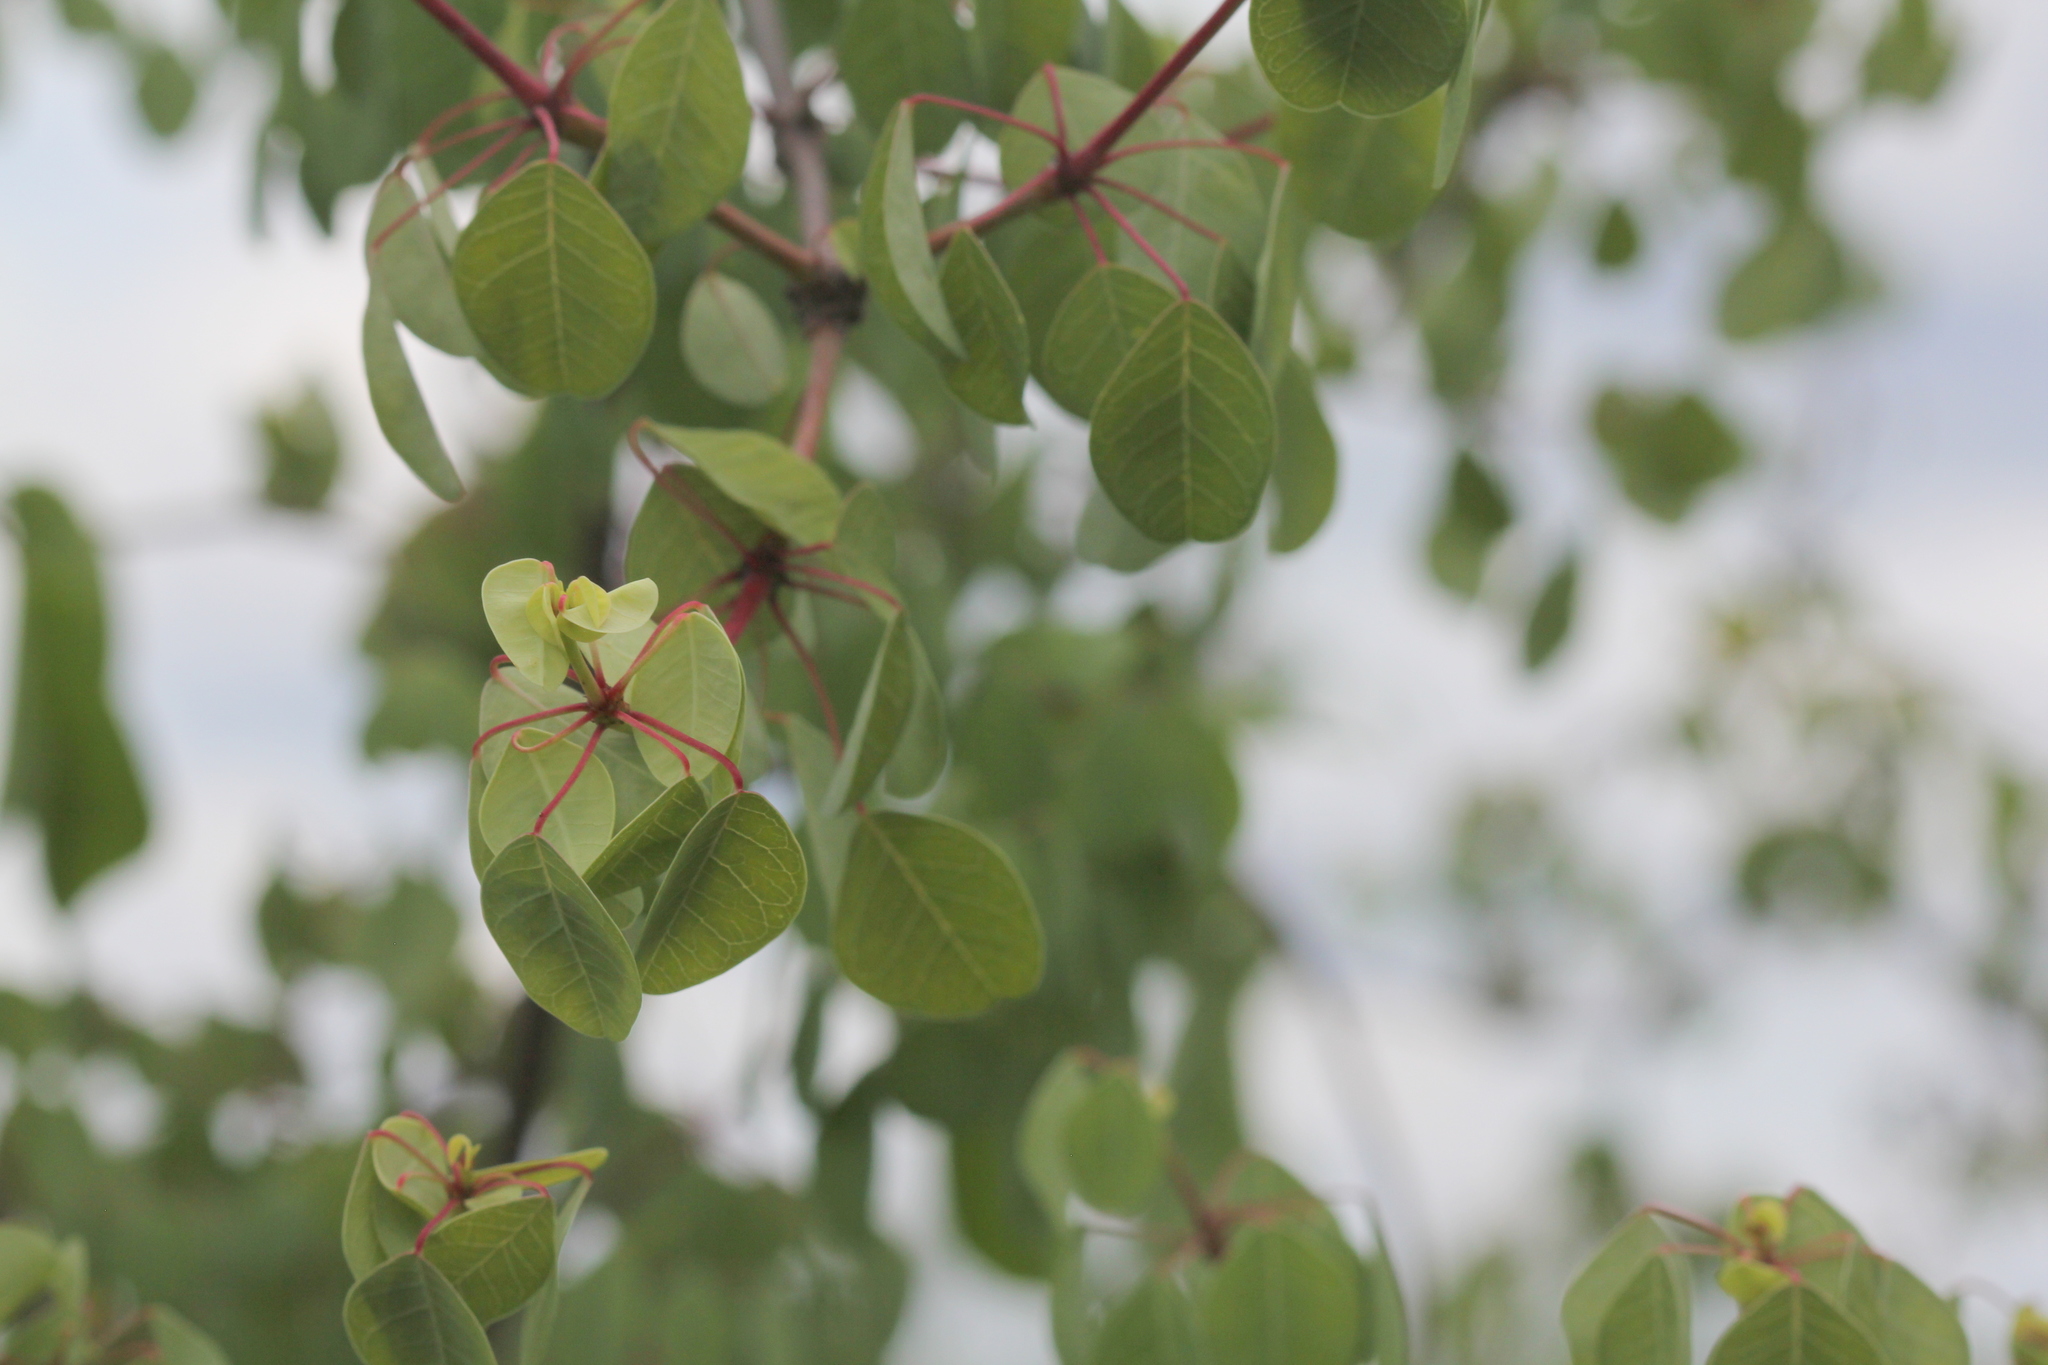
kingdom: Plantae
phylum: Tracheophyta
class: Magnoliopsida
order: Malpighiales
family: Euphorbiaceae
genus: Euphorbia
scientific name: Euphorbia schlechtendalii
